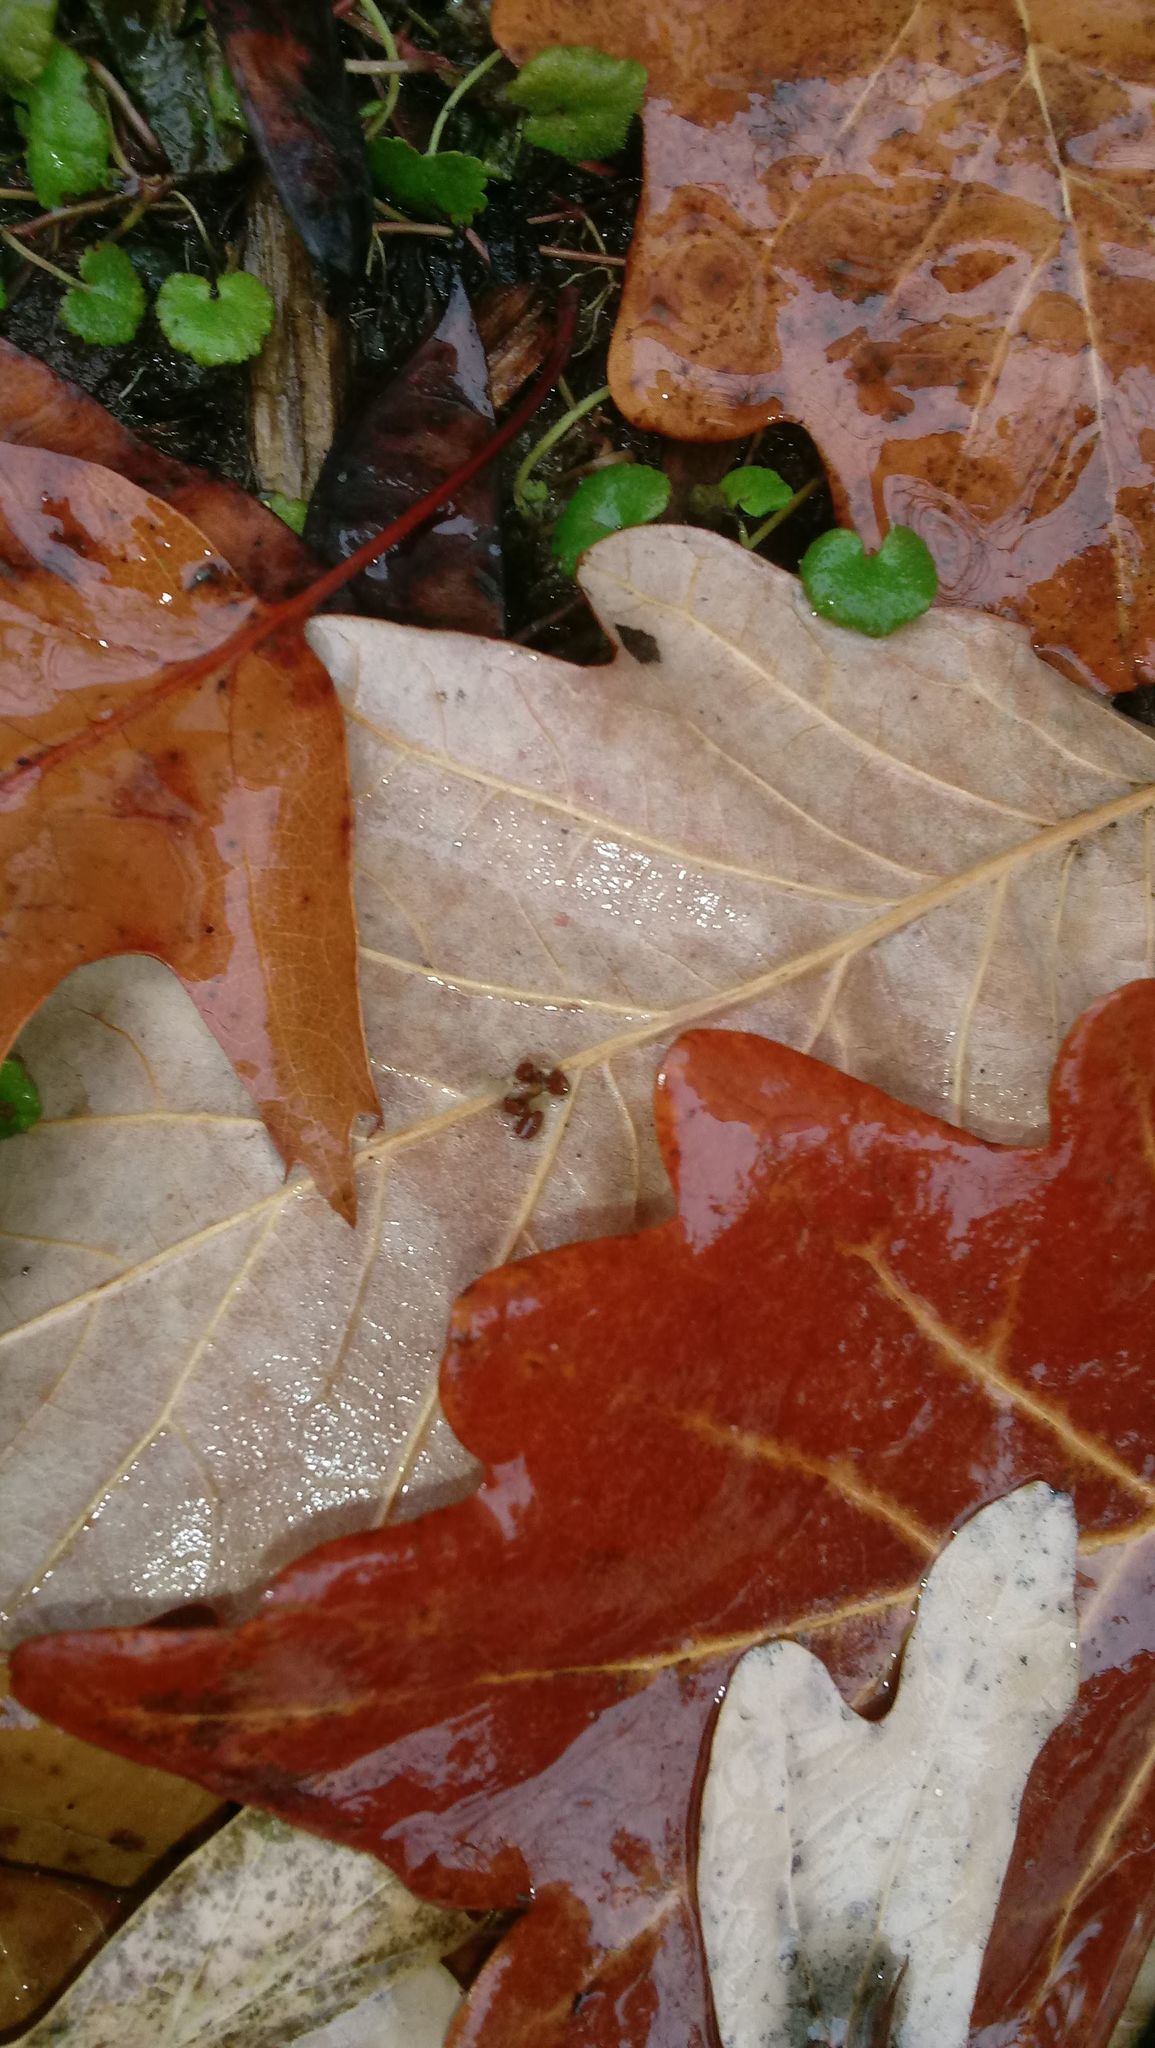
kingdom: Animalia
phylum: Arthropoda
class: Insecta
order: Hymenoptera
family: Cynipidae
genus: Andricus
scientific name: Andricus Druon ignotum
